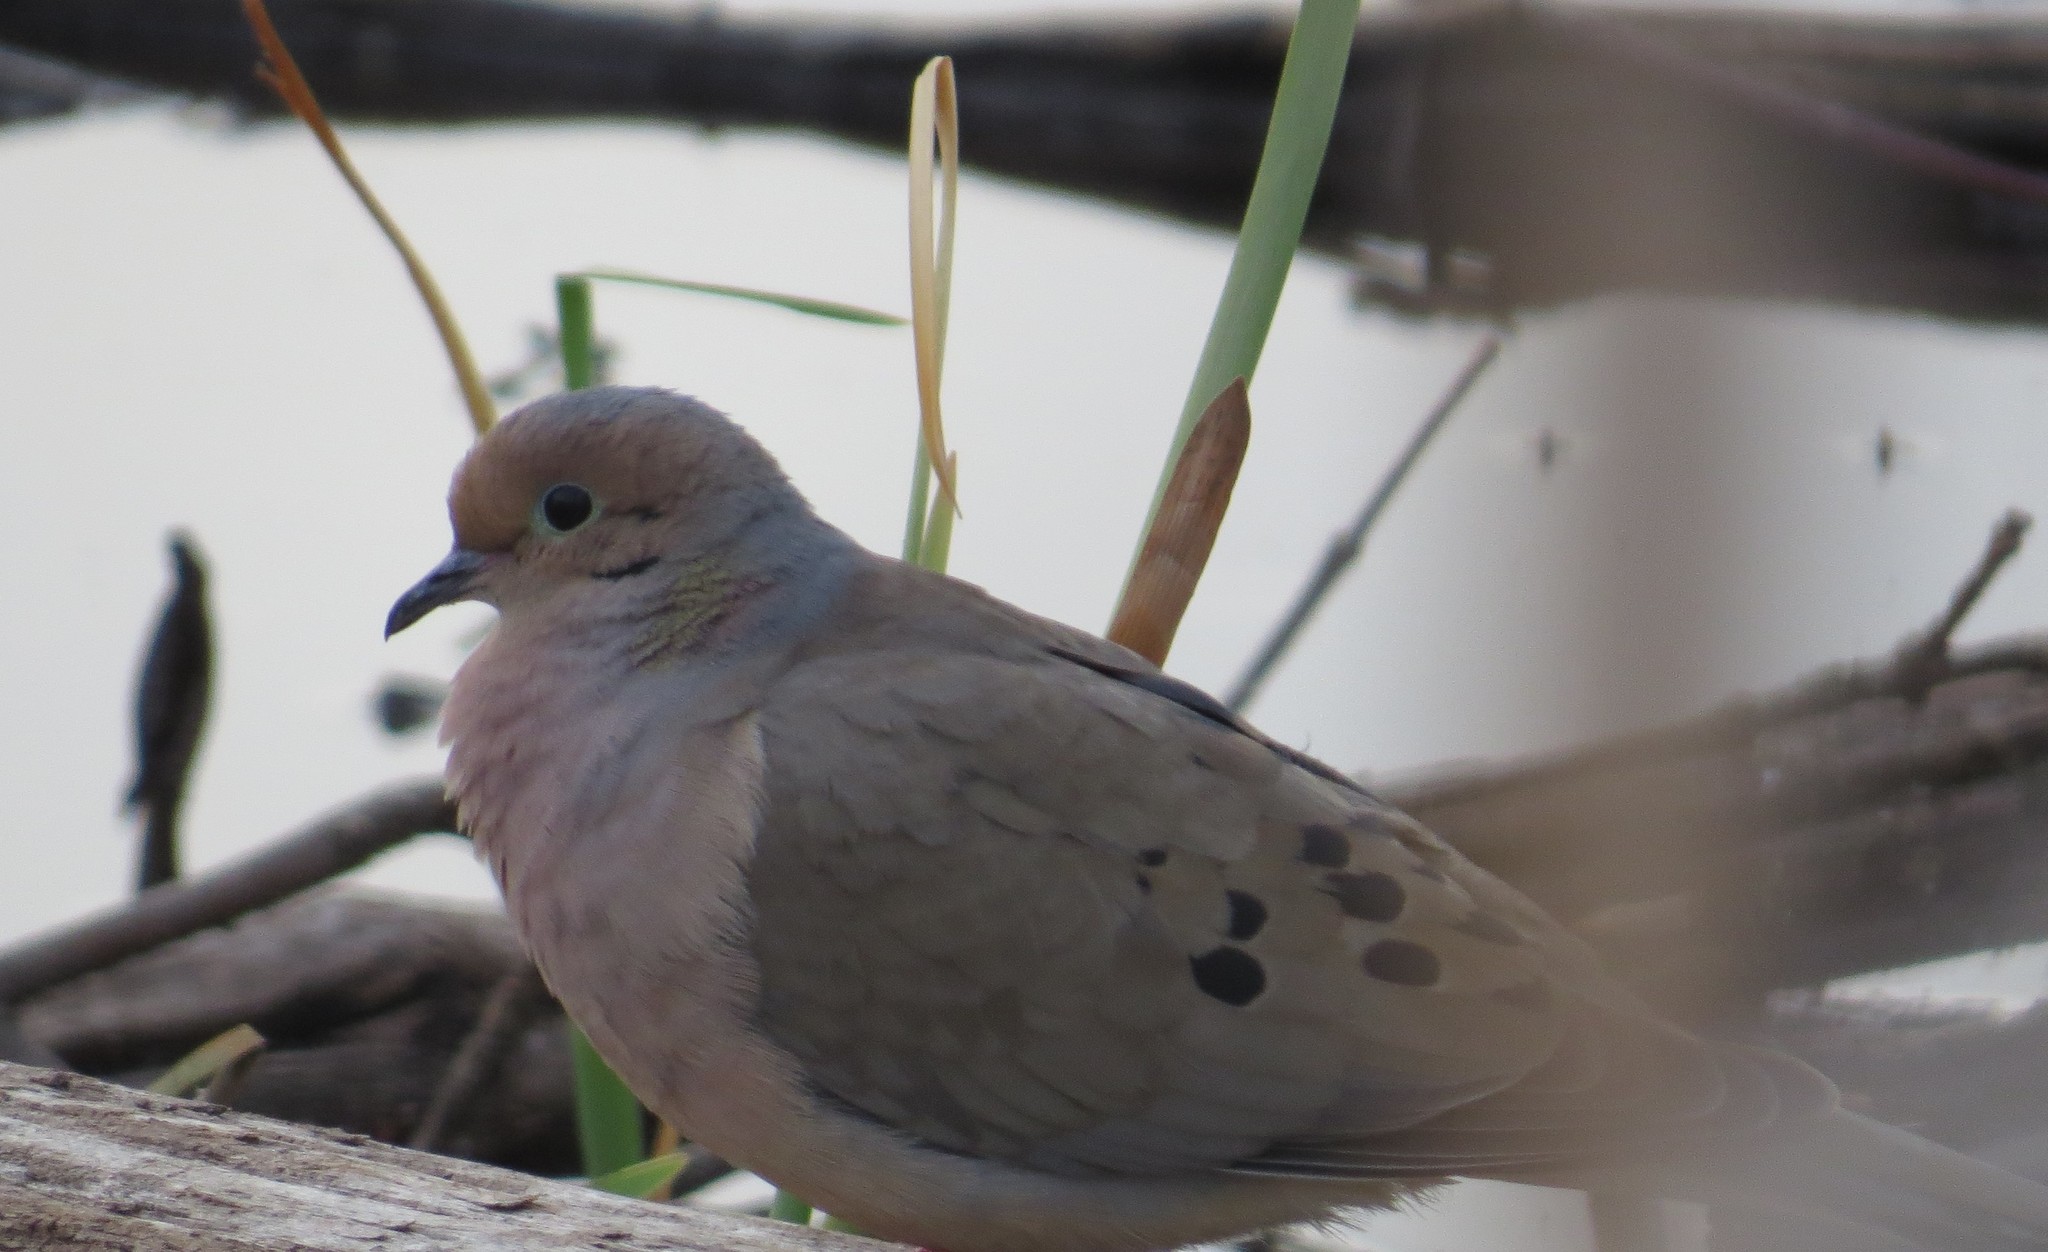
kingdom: Animalia
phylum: Chordata
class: Aves
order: Columbiformes
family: Columbidae
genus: Zenaida
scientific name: Zenaida macroura
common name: Mourning dove
